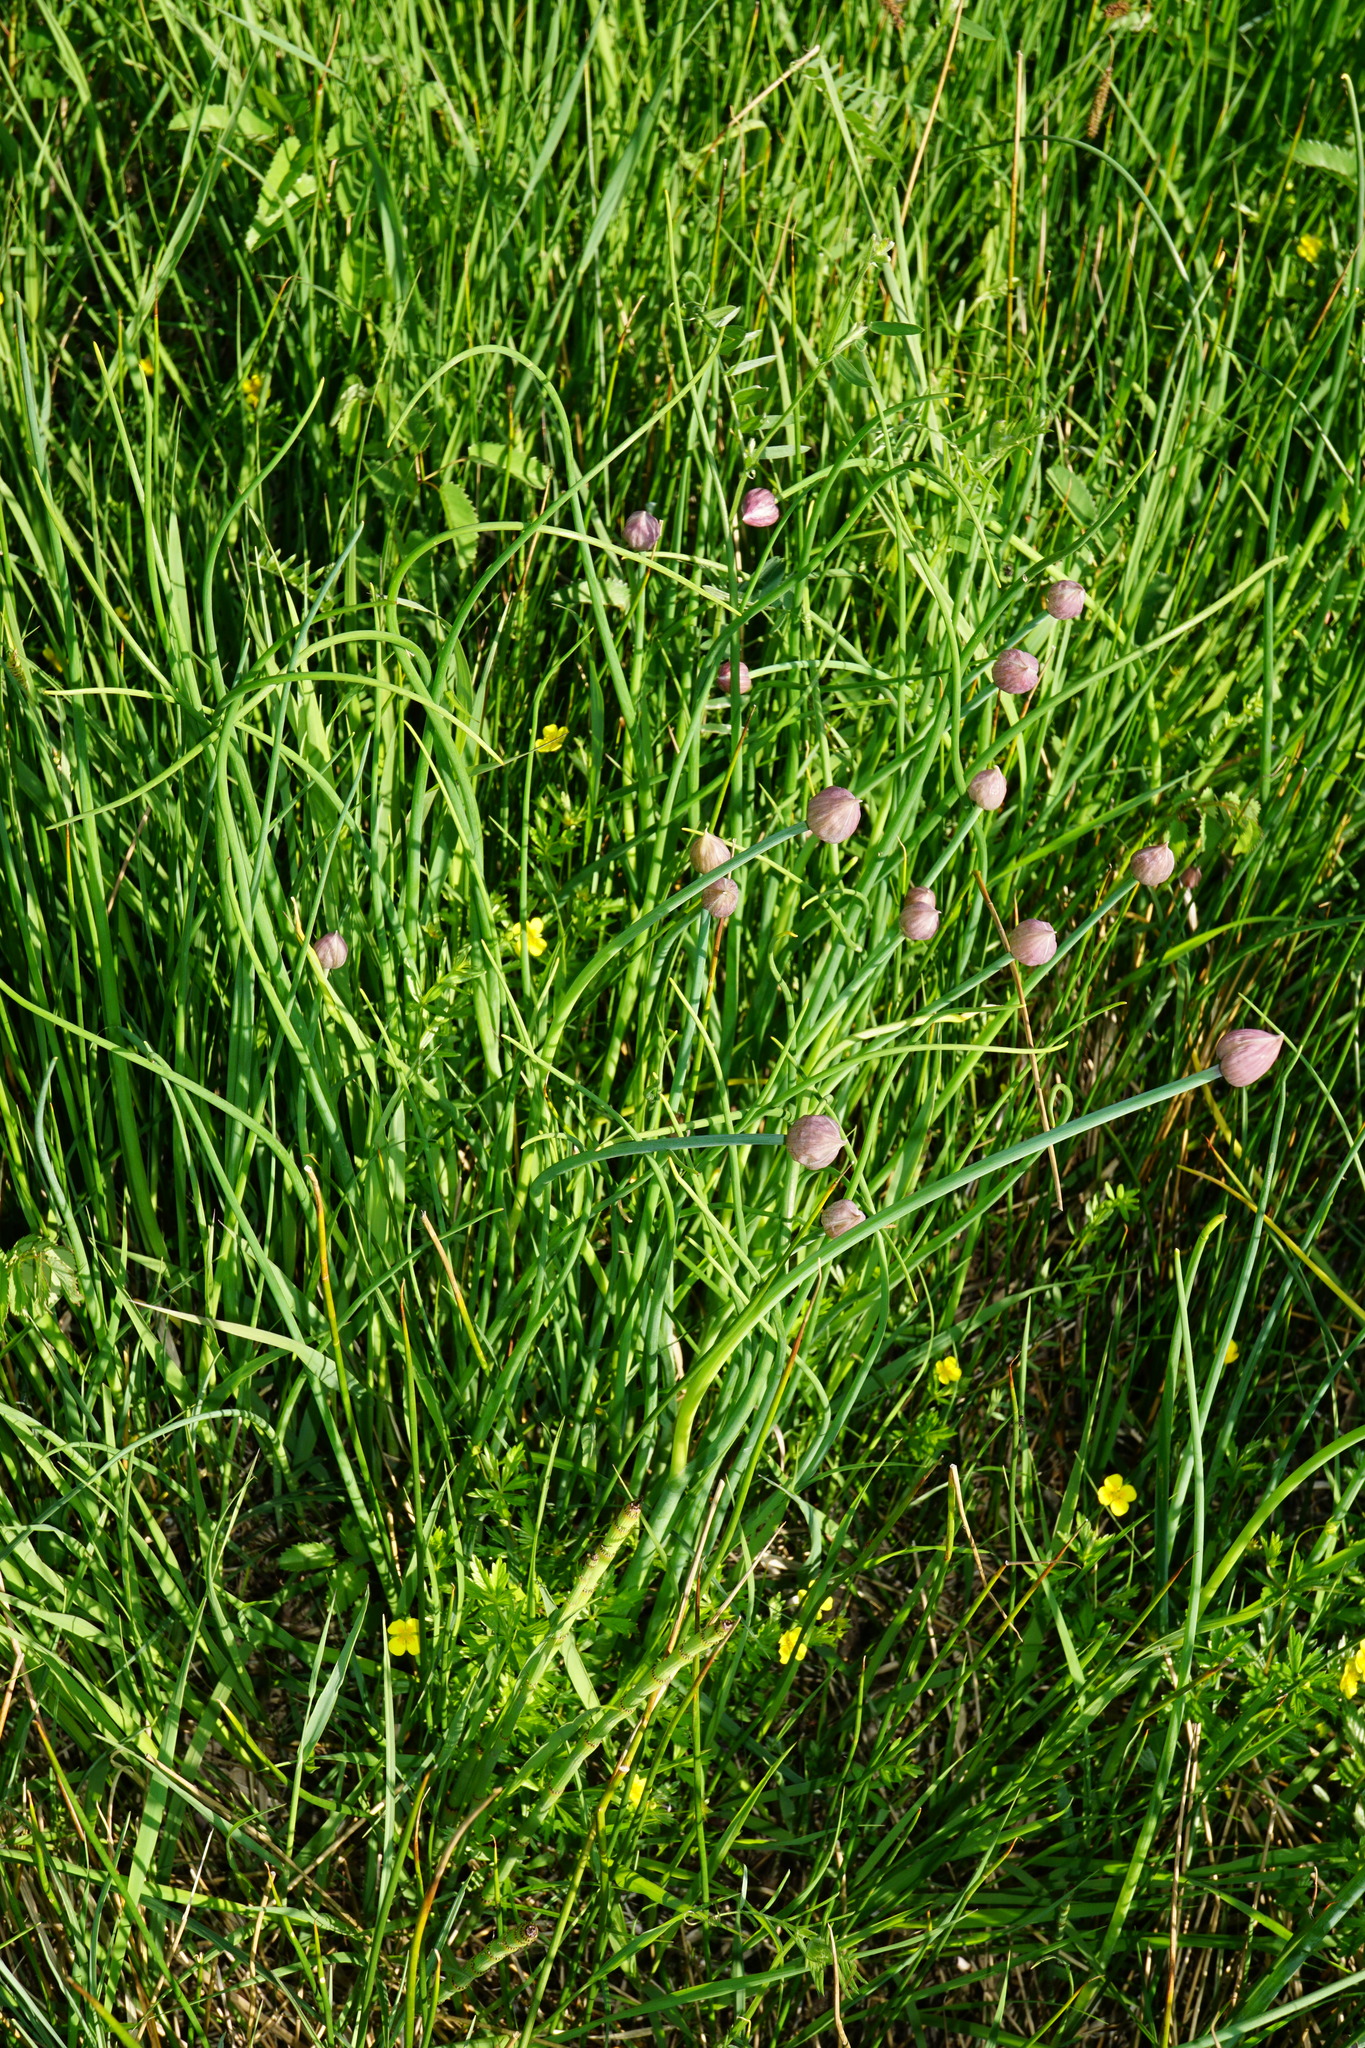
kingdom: Plantae
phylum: Tracheophyta
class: Liliopsida
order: Asparagales
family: Amaryllidaceae
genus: Allium
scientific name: Allium schoenoprasum
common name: Chives
